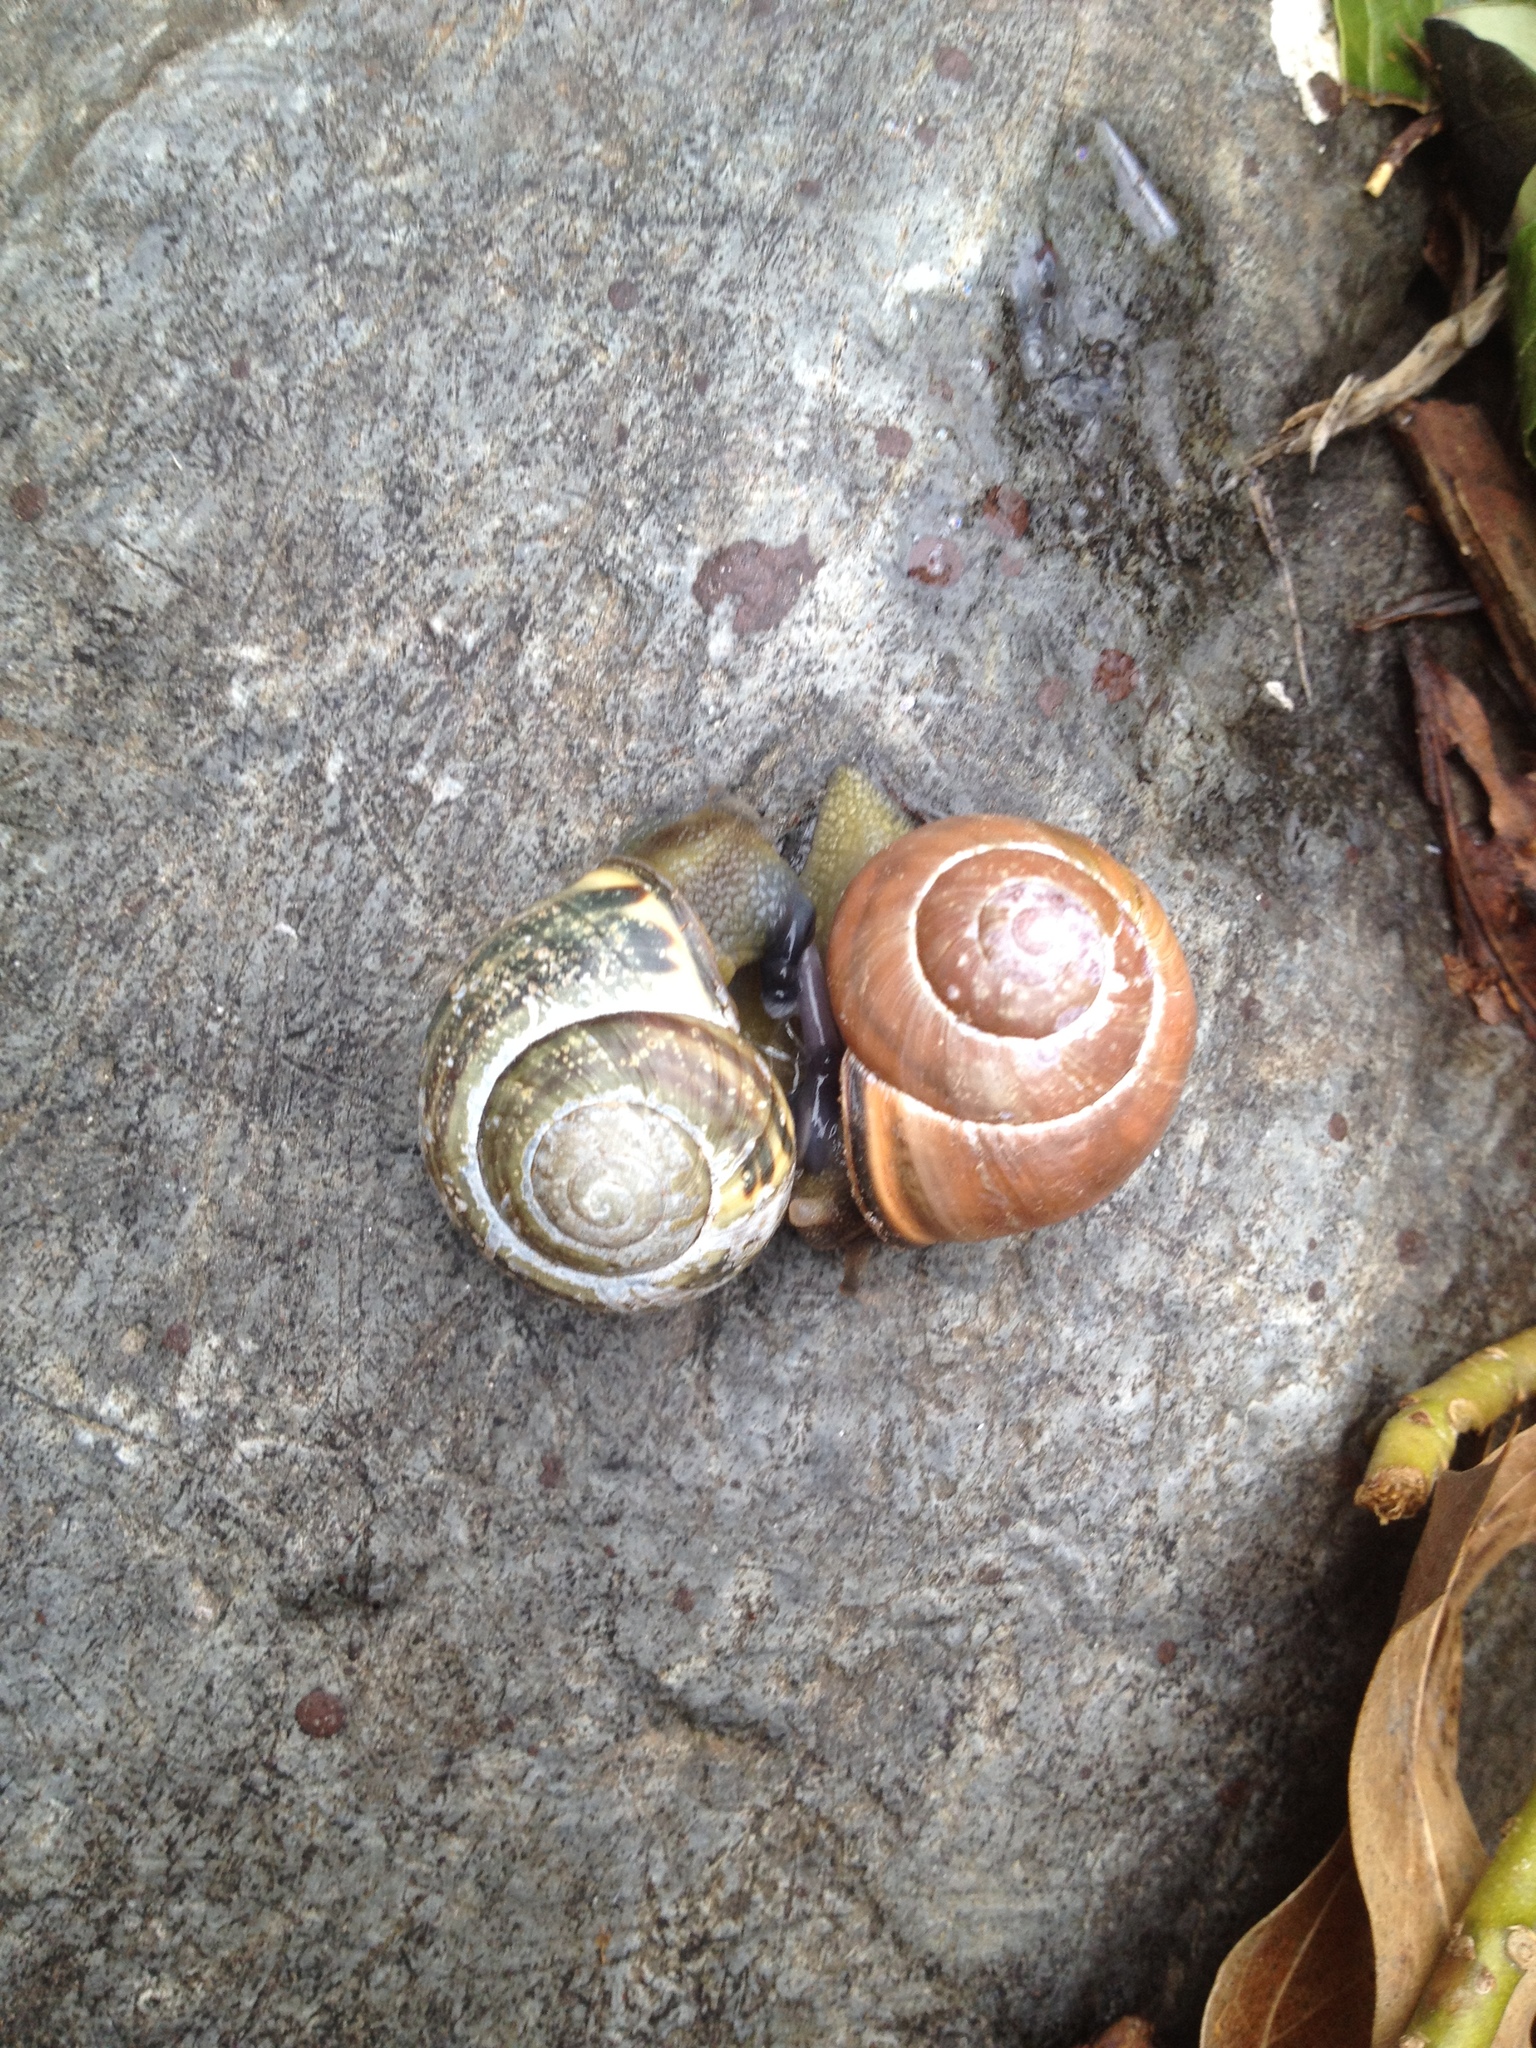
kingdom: Animalia
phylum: Mollusca
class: Gastropoda
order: Stylommatophora
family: Helicidae
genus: Cepaea
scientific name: Cepaea nemoralis
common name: Grovesnail
